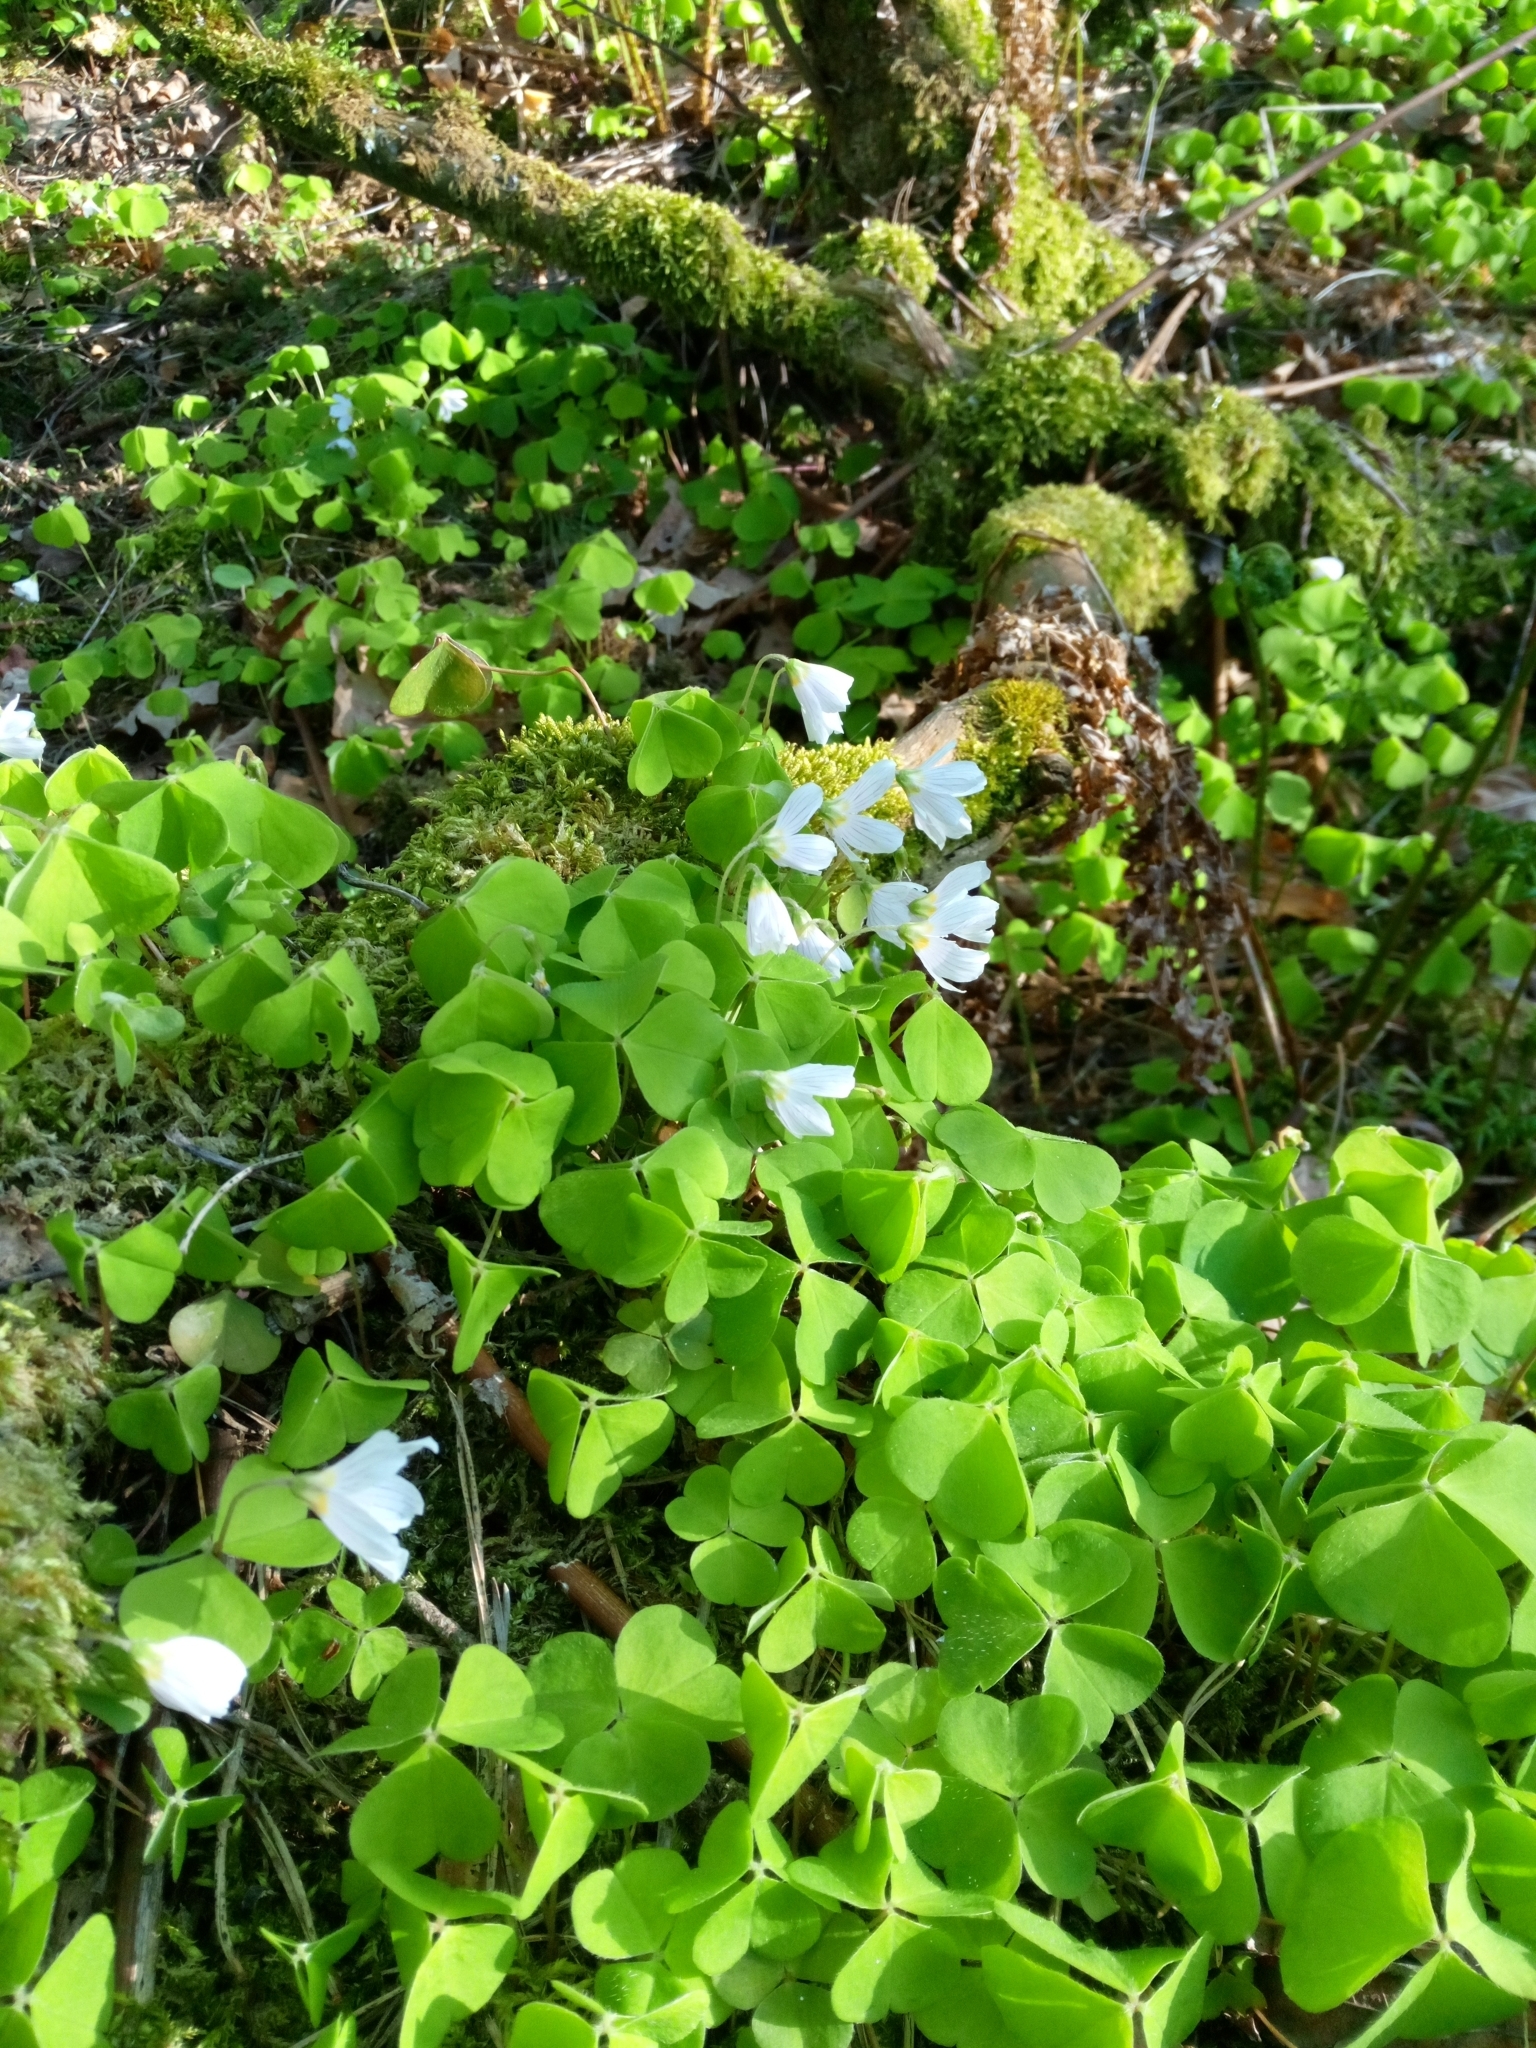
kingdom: Plantae
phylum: Tracheophyta
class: Magnoliopsida
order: Oxalidales
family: Oxalidaceae
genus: Oxalis
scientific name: Oxalis acetosella
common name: Wood-sorrel
